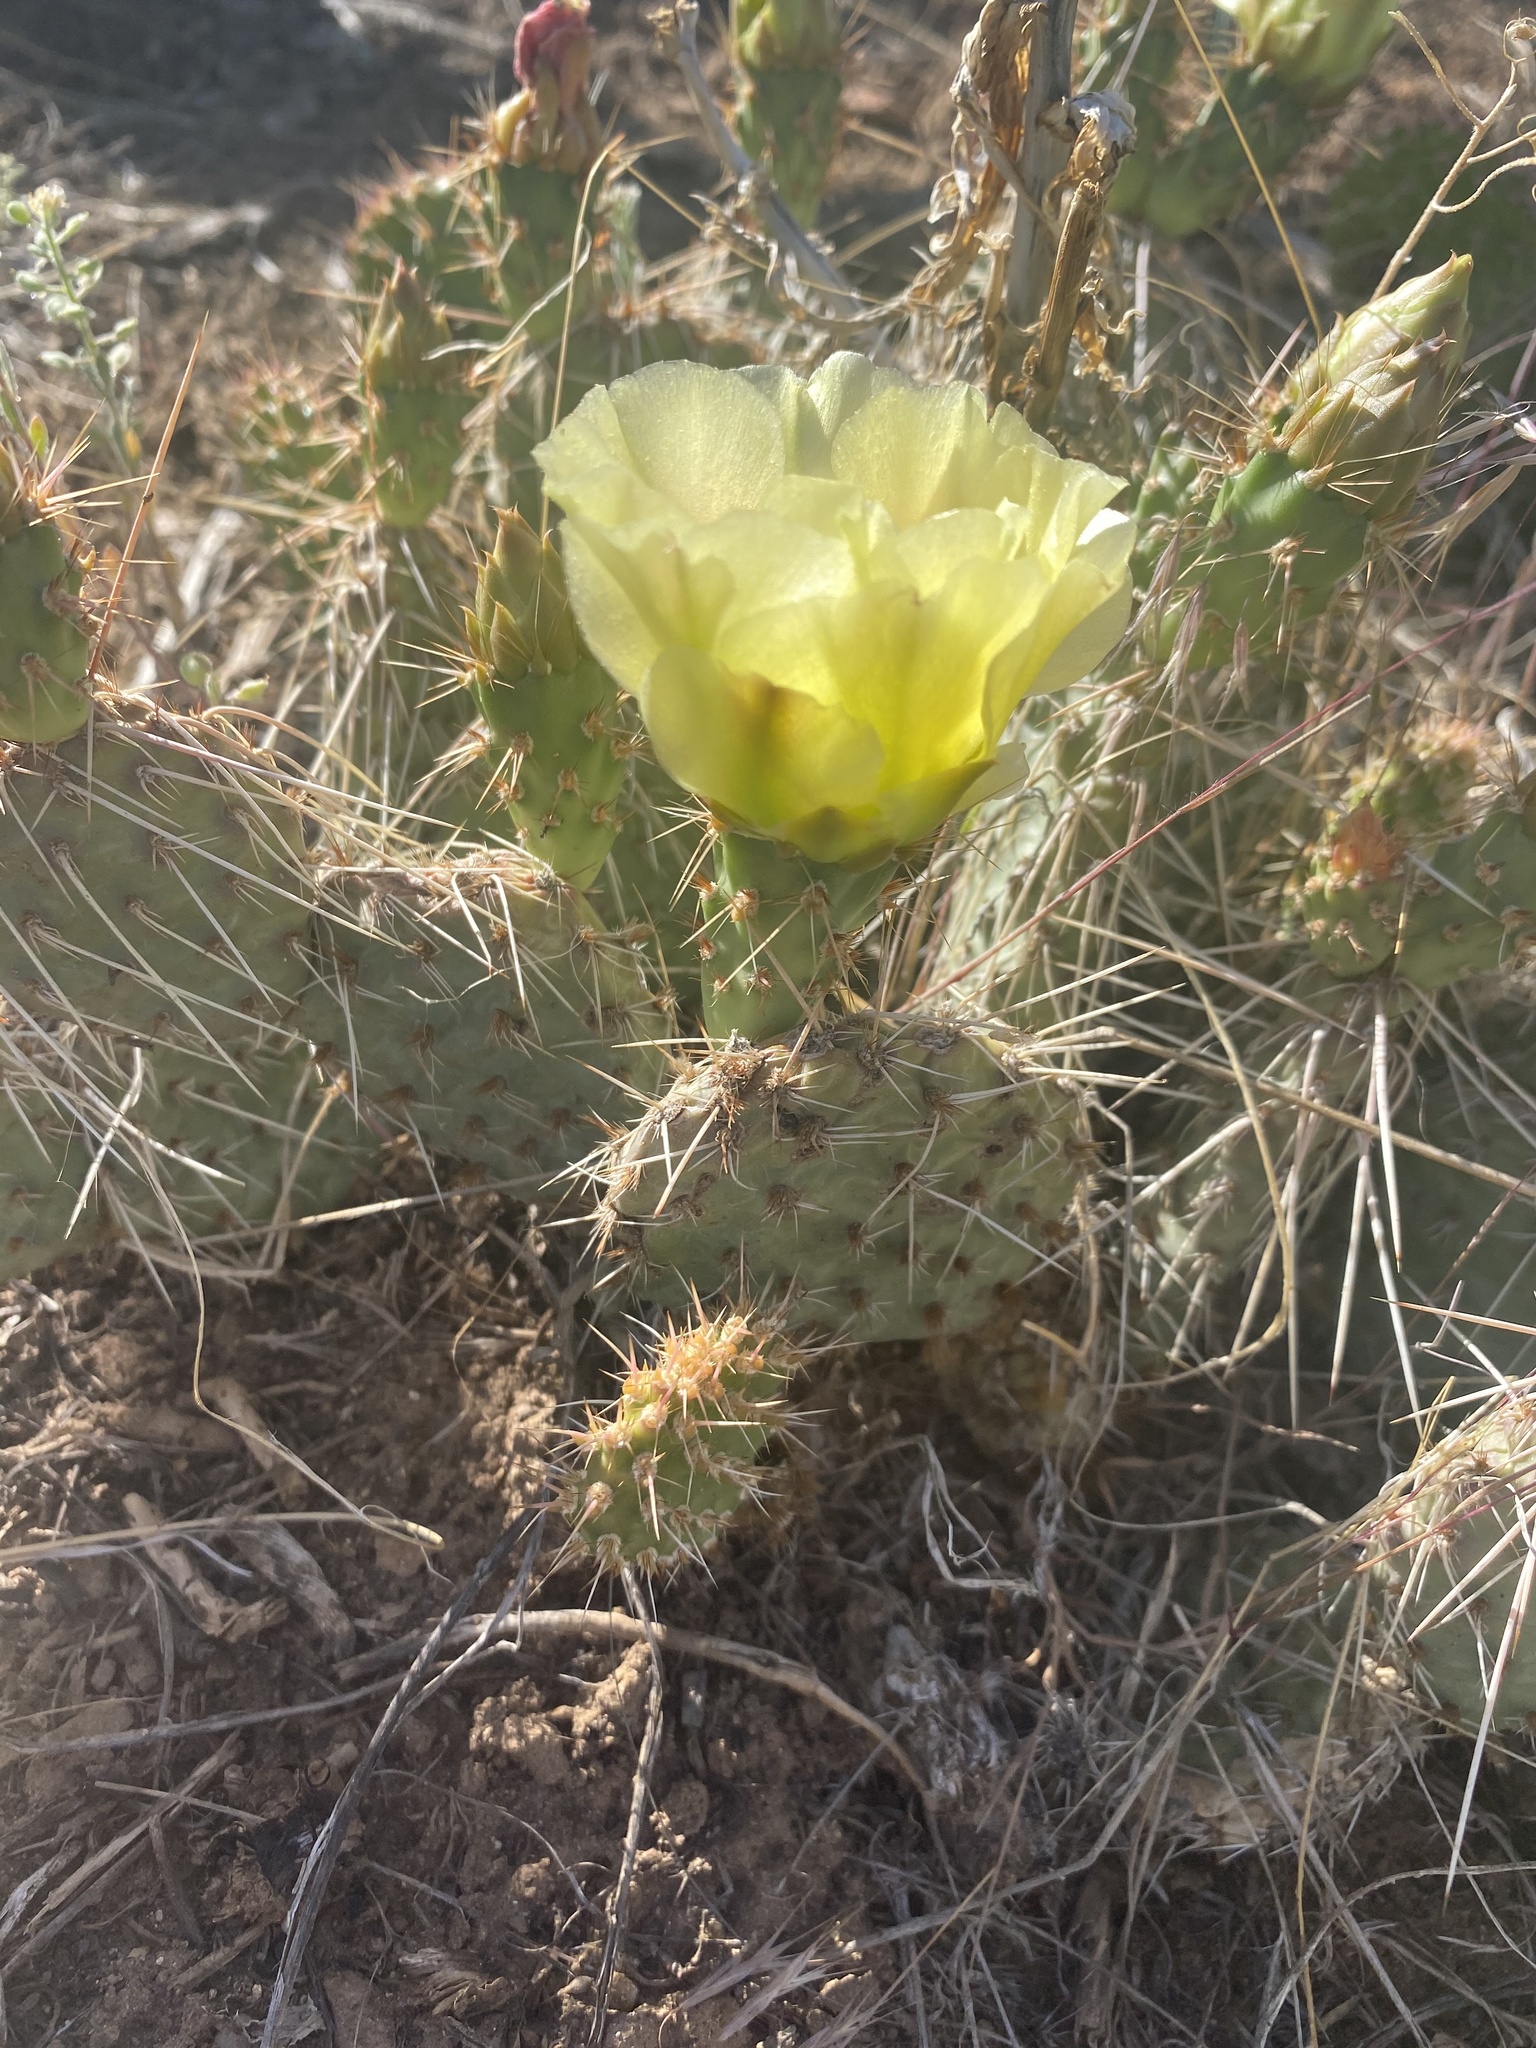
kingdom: Plantae
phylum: Tracheophyta
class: Magnoliopsida
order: Caryophyllales
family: Cactaceae
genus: Opuntia
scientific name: Opuntia polyacantha
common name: Plains prickly-pear
